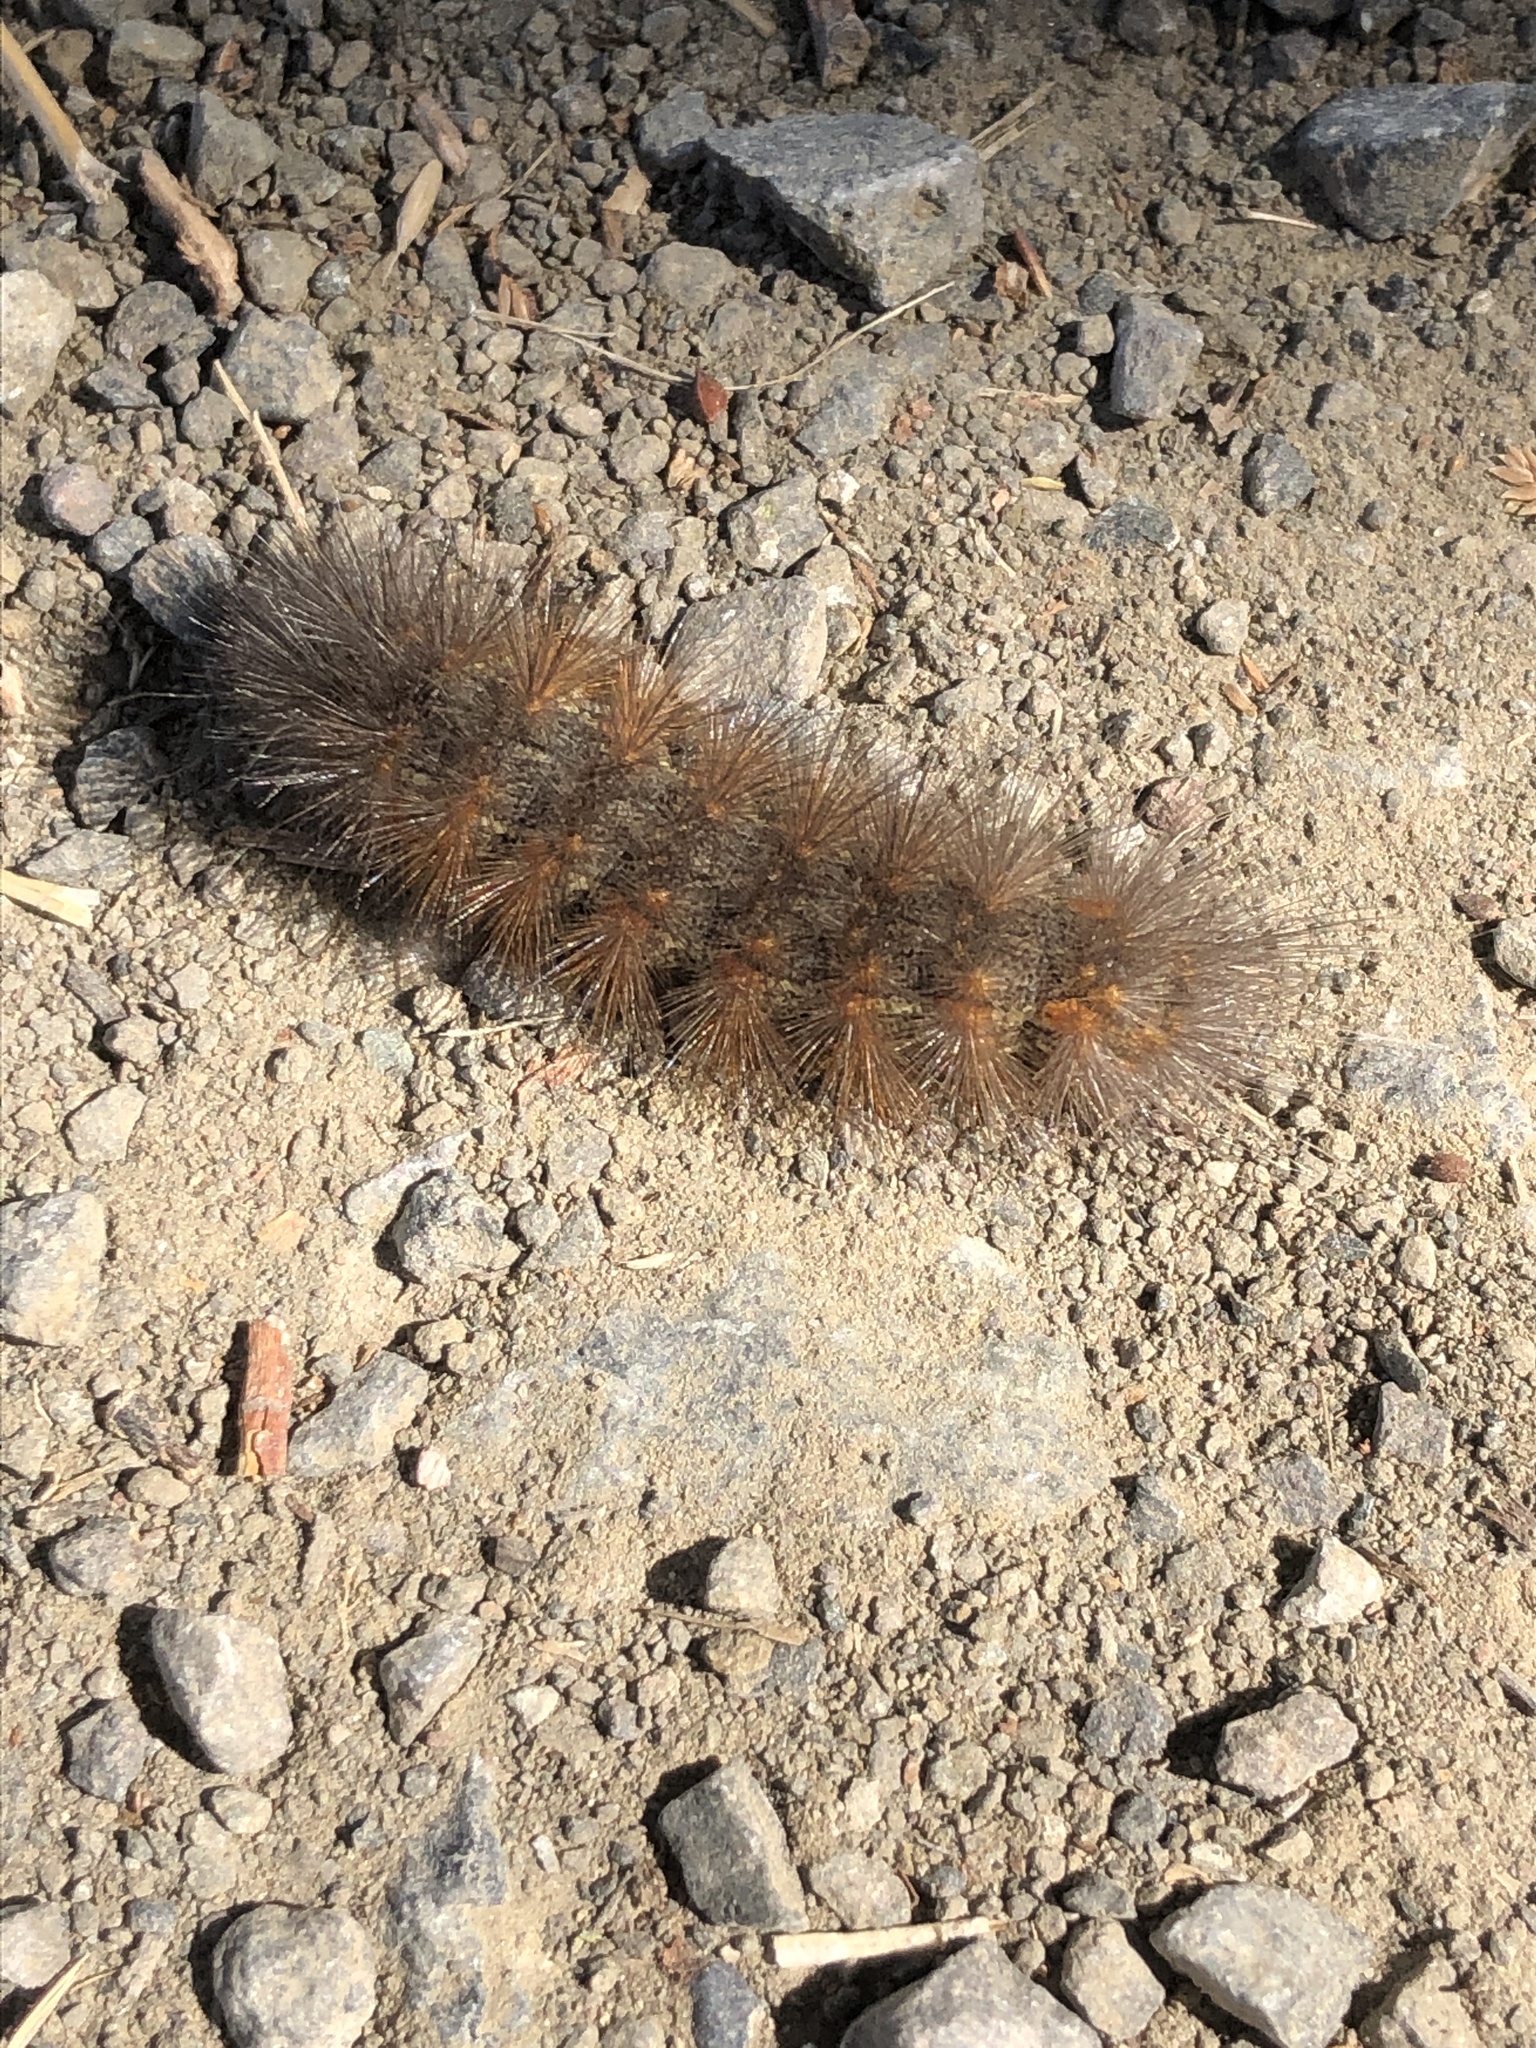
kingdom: Animalia
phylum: Arthropoda
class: Insecta
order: Lepidoptera
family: Erebidae
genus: Estigmene
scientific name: Estigmene acrea
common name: Salt marsh moth
